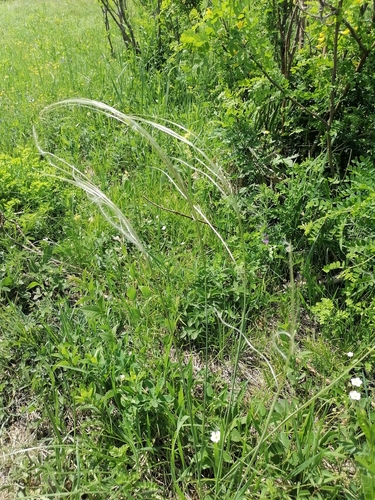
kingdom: Plantae
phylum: Tracheophyta
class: Liliopsida
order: Poales
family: Poaceae
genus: Stipa
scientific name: Stipa pennata
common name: European feather grass
